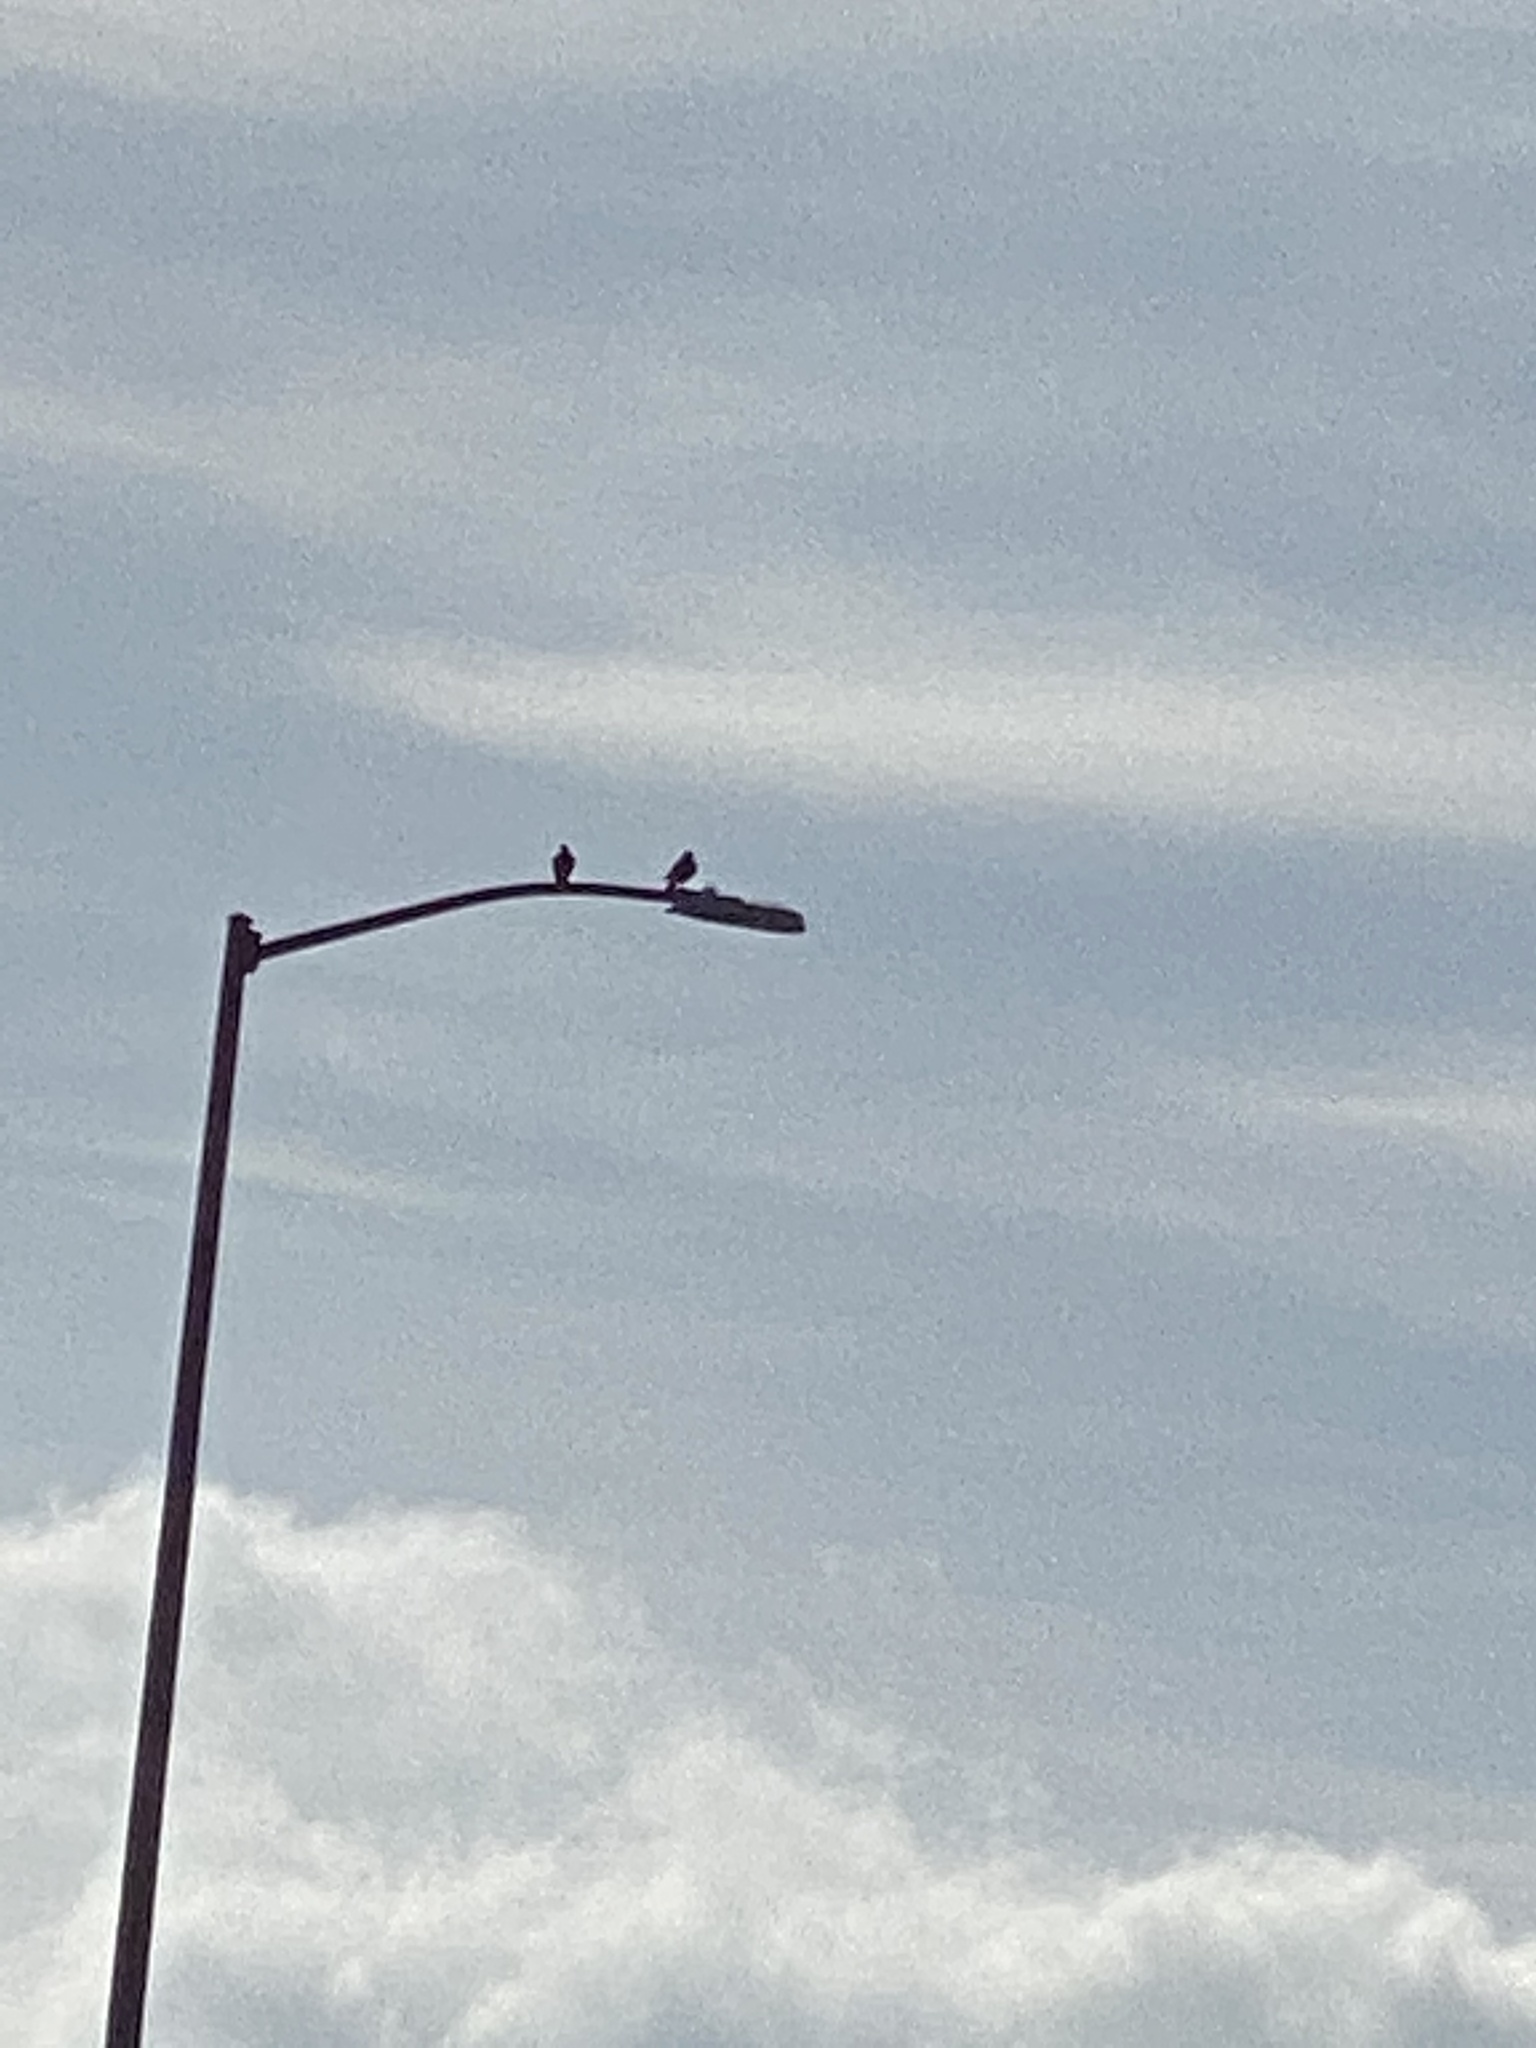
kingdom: Animalia
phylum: Chordata
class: Aves
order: Columbiformes
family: Columbidae
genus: Columba
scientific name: Columba livia
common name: Rock pigeon
